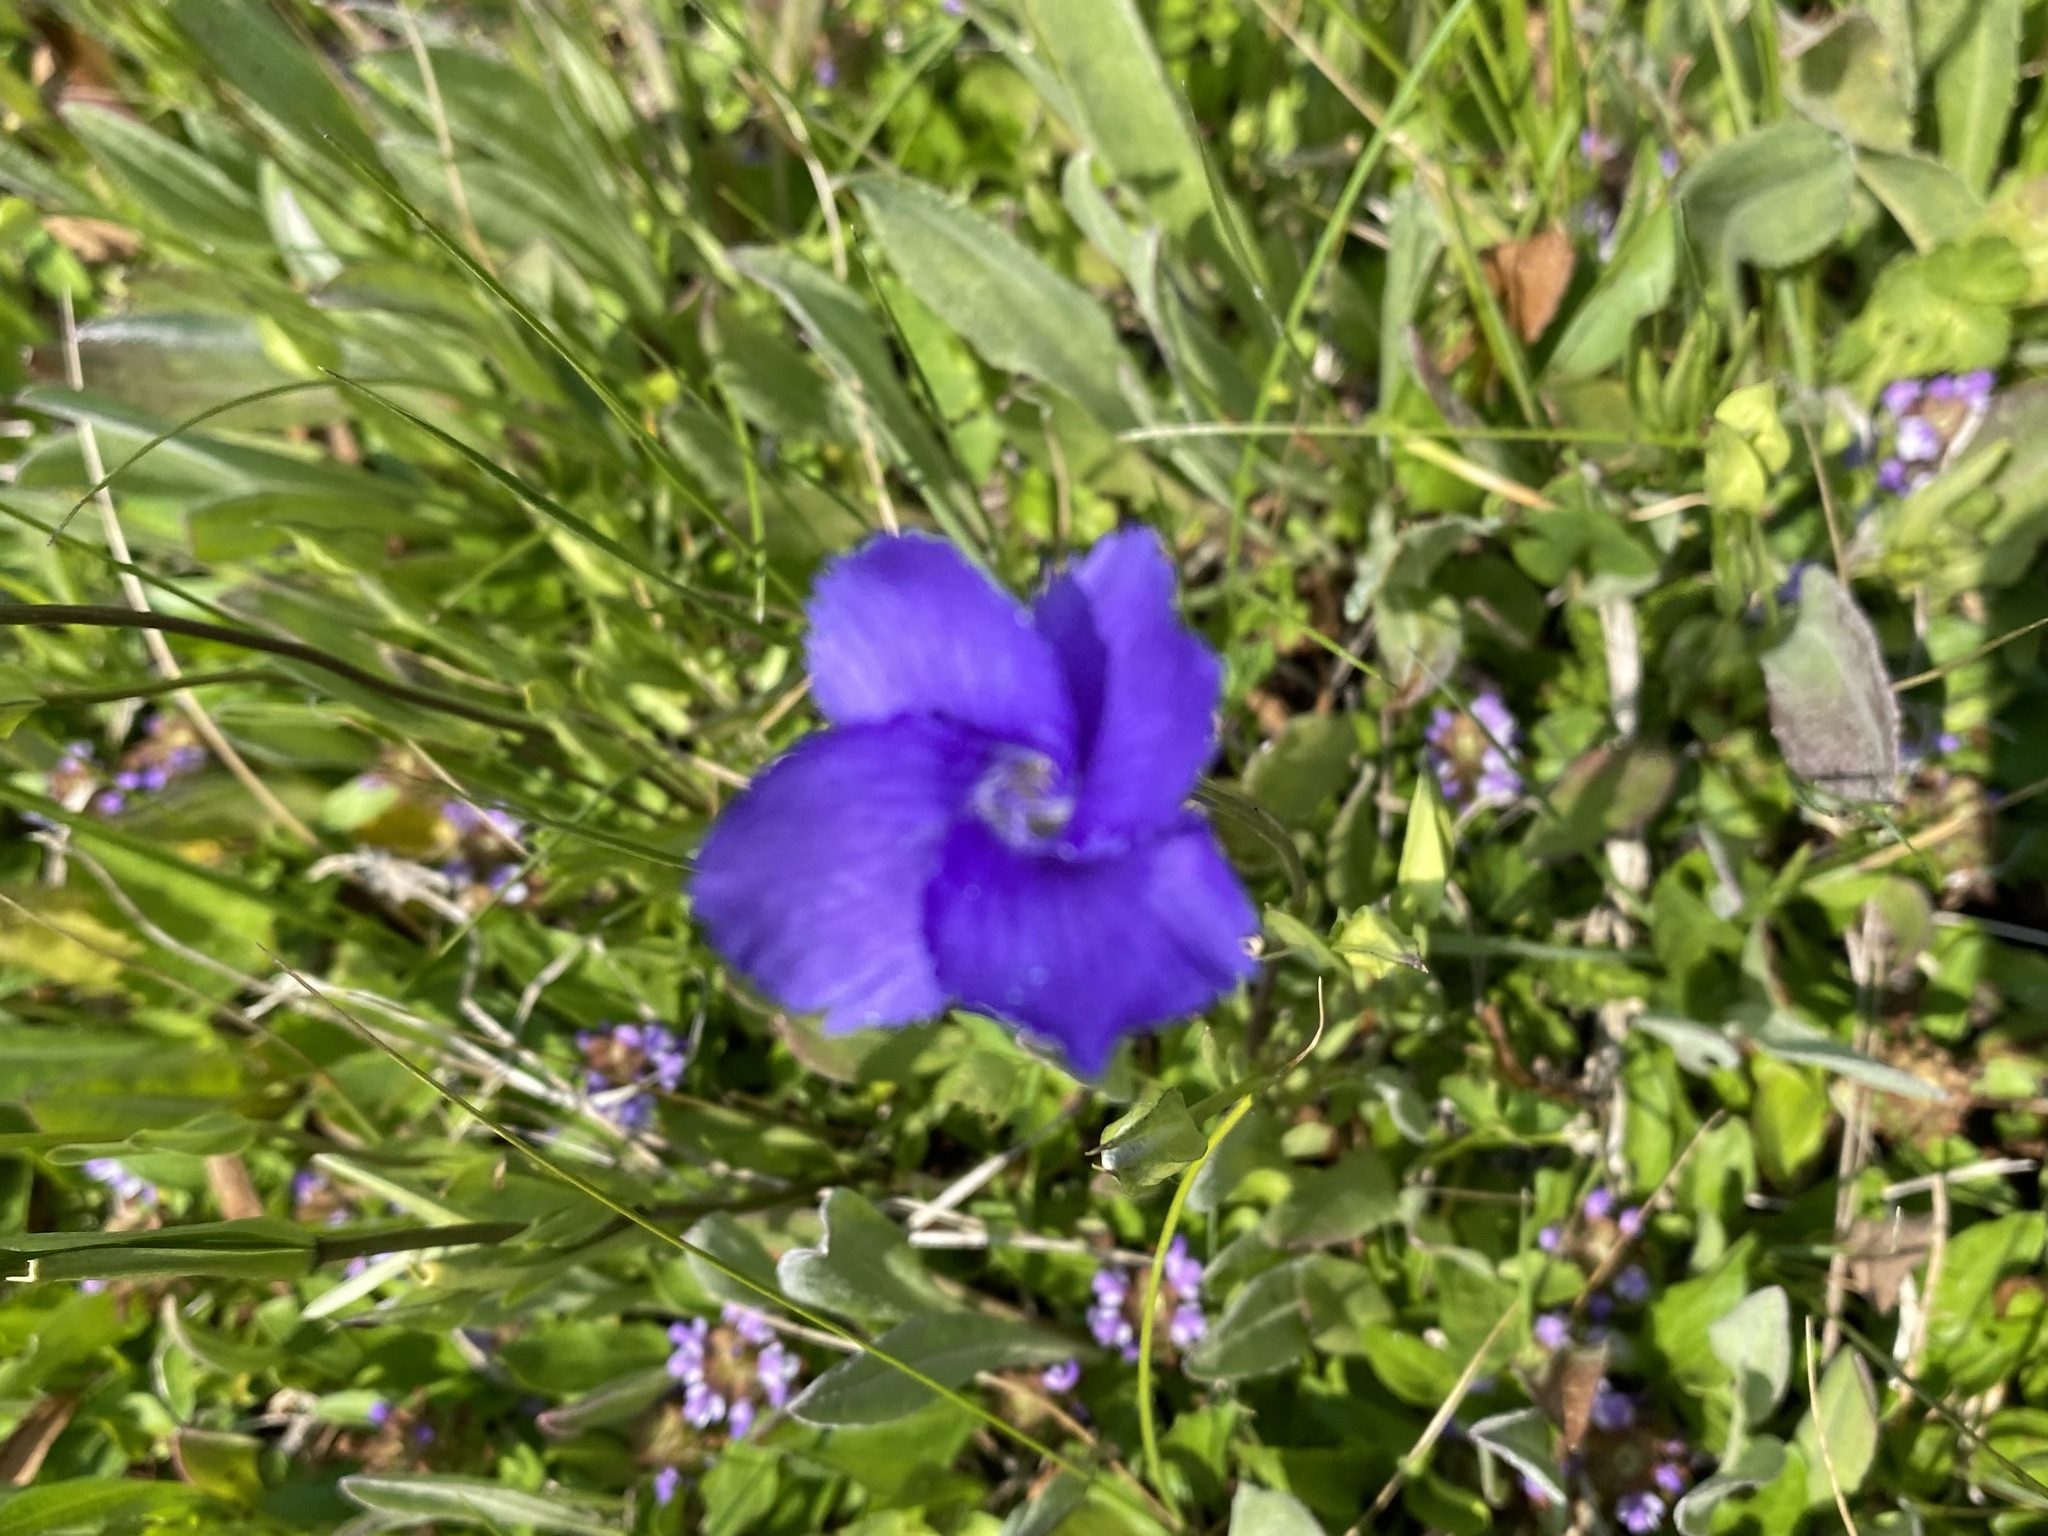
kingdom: Plantae
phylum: Tracheophyta
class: Magnoliopsida
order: Gentianales
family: Gentianaceae
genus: Gentianopsis
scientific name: Gentianopsis thermalis
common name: Rocky mountain fringed-gentian
